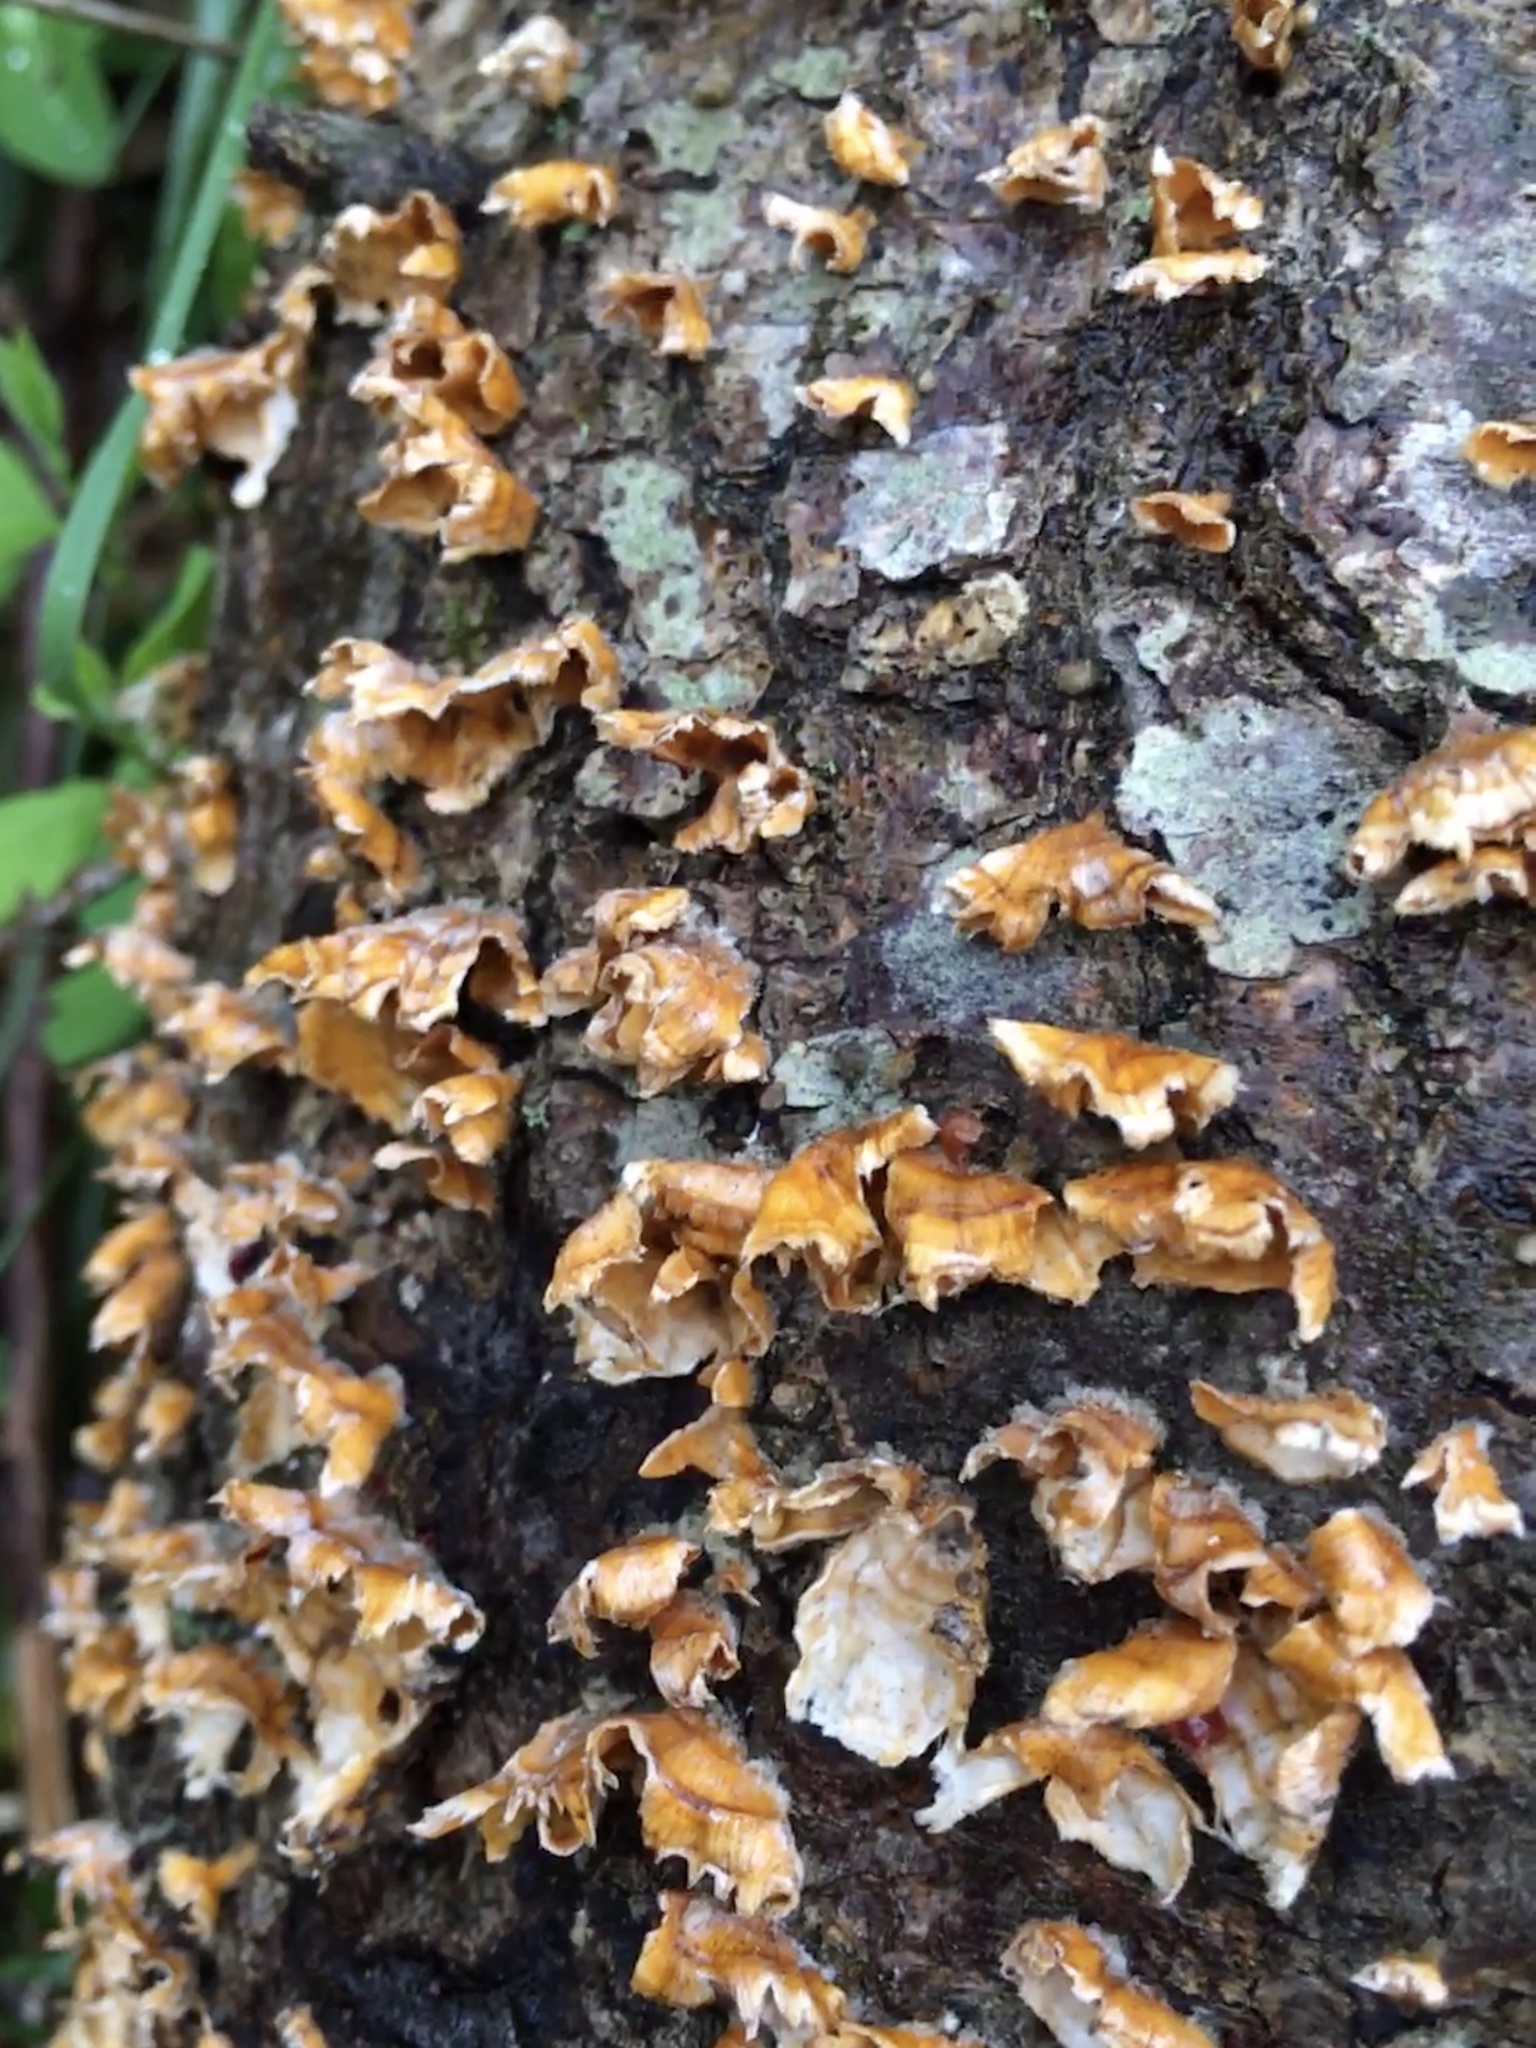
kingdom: Fungi
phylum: Basidiomycota
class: Agaricomycetes
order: Russulales
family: Stereaceae
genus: Stereum
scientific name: Stereum complicatum
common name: Crowded parchment
